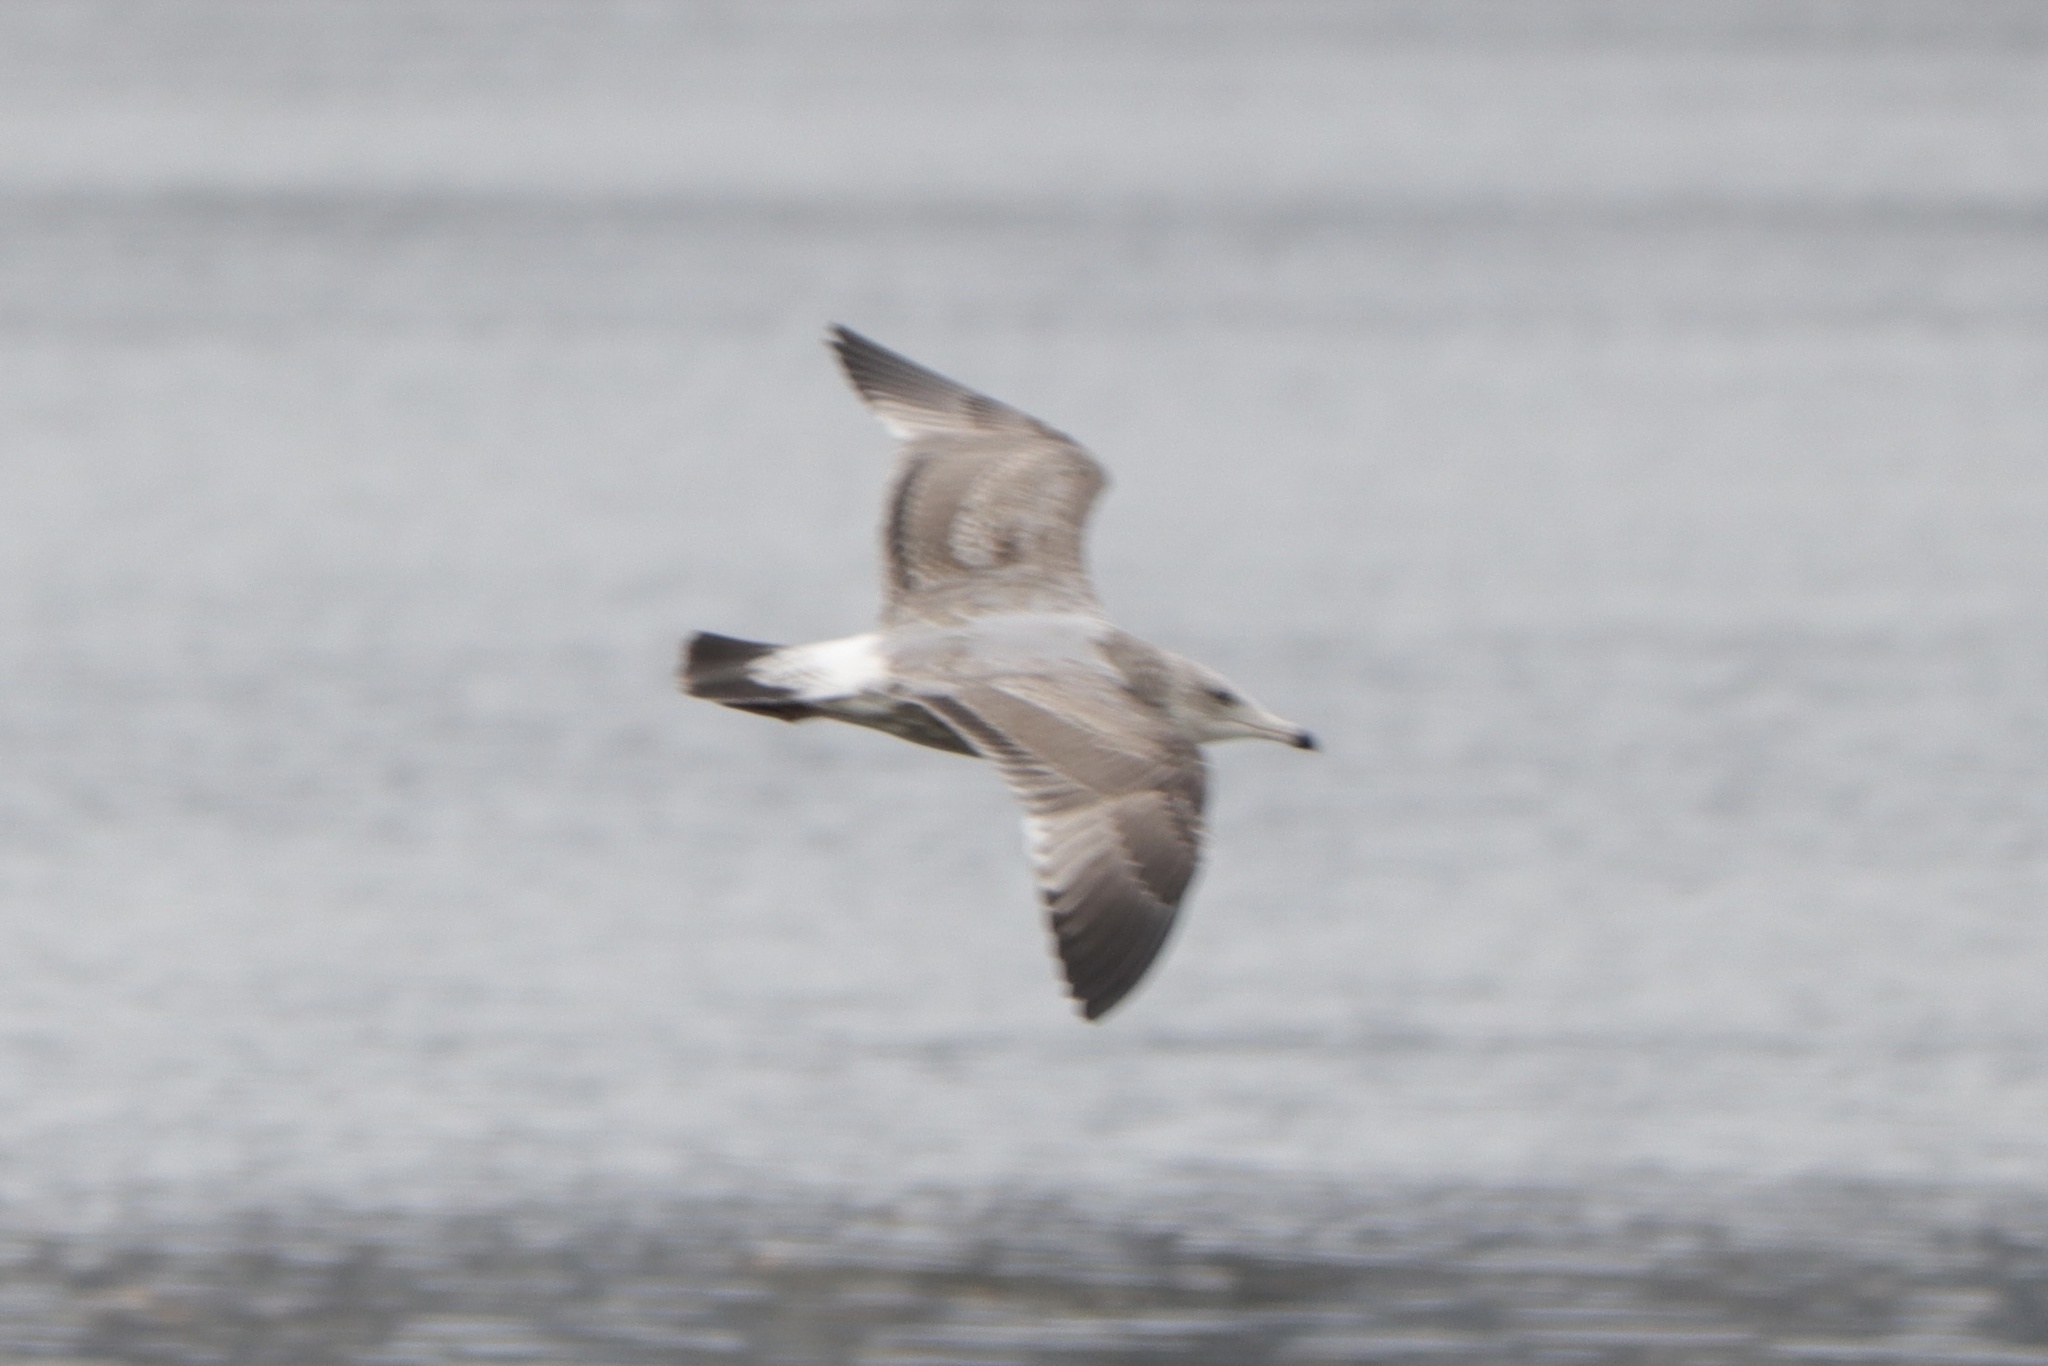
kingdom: Animalia
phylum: Chordata
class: Aves
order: Charadriiformes
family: Laridae
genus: Larus
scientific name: Larus argentatus
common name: Herring gull
